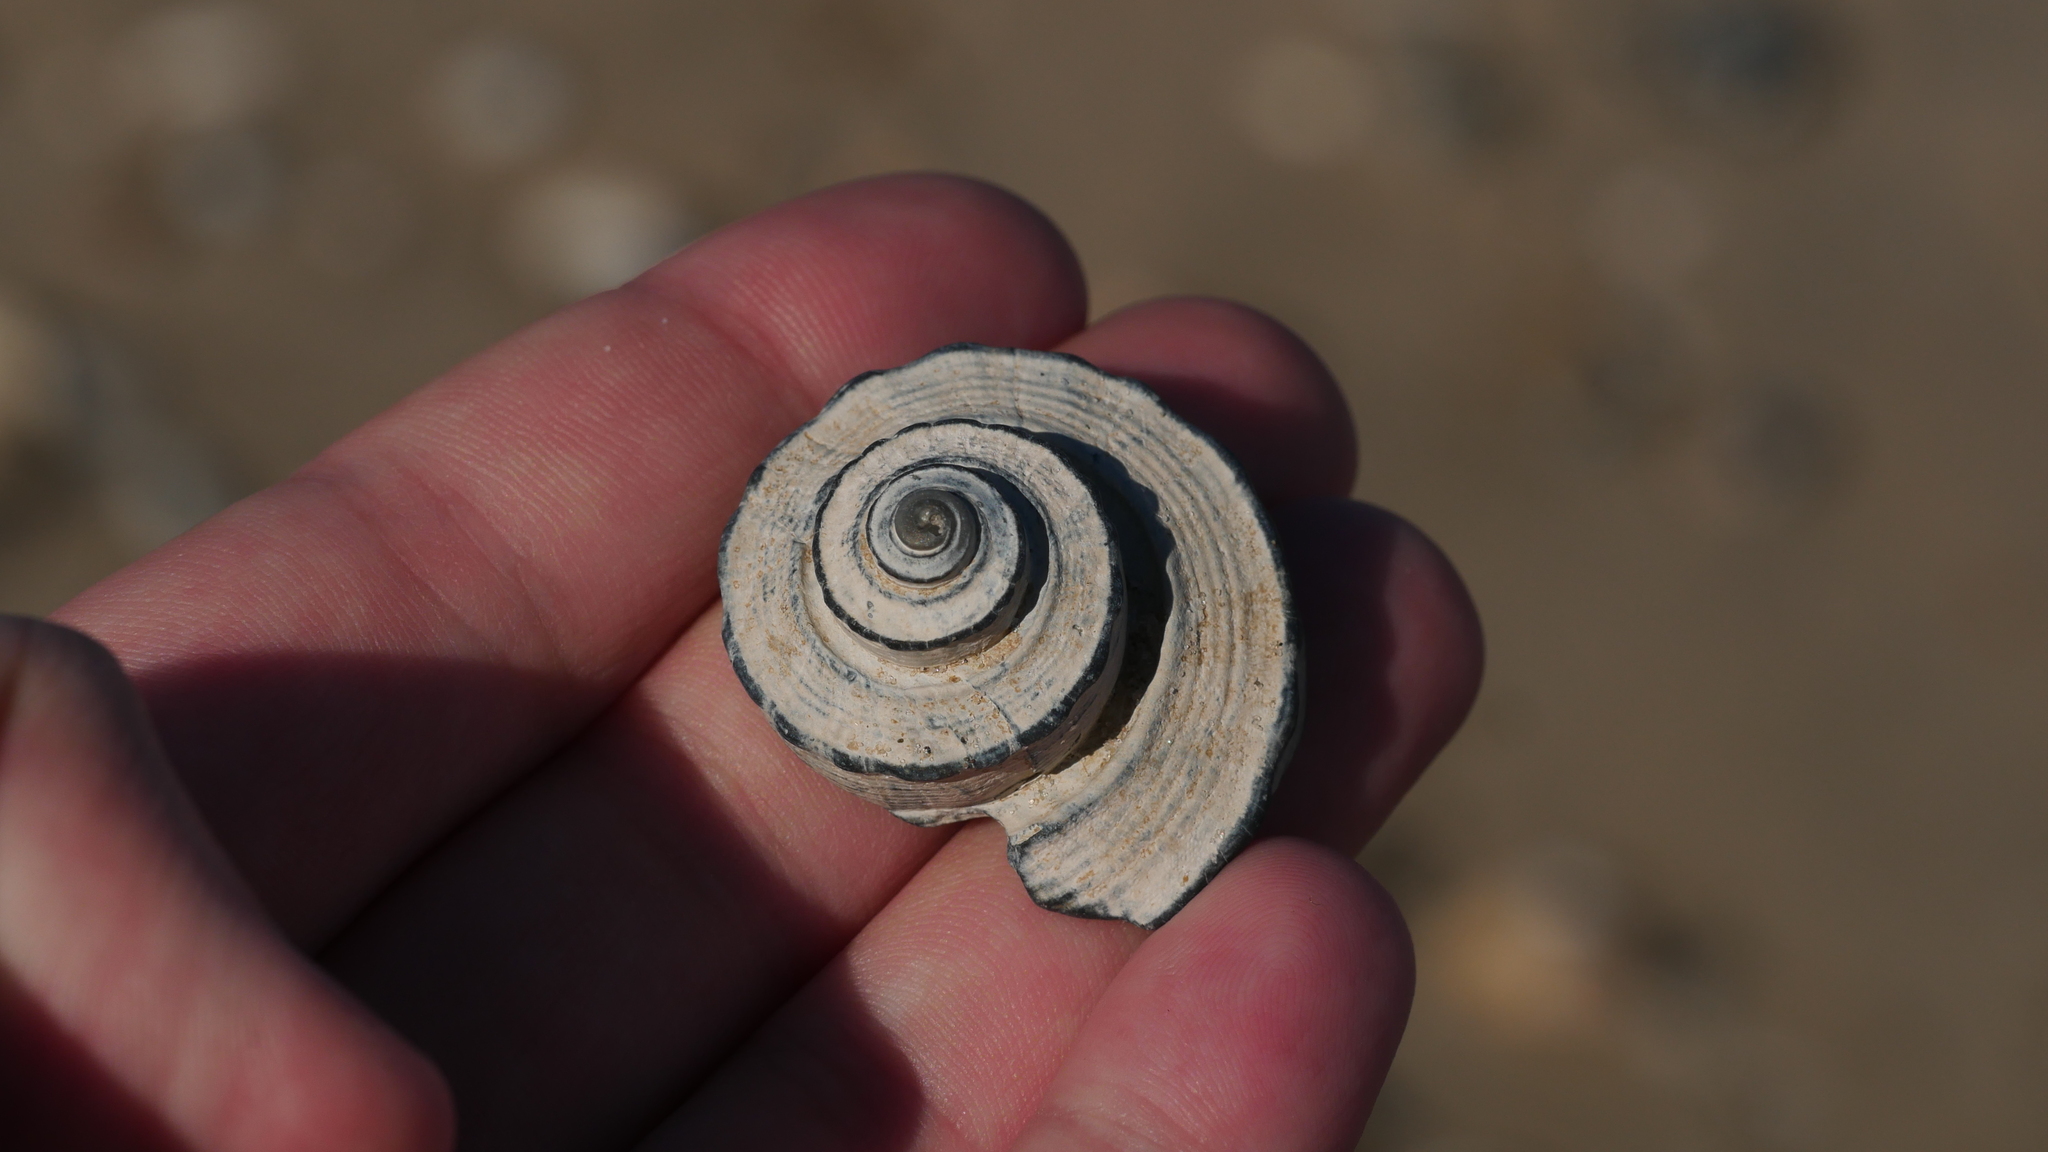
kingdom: Animalia
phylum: Mollusca
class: Gastropoda
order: Neogastropoda
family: Busyconidae
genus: Busycotypus
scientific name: Busycotypus canaliculatus
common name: Channeled whelk
